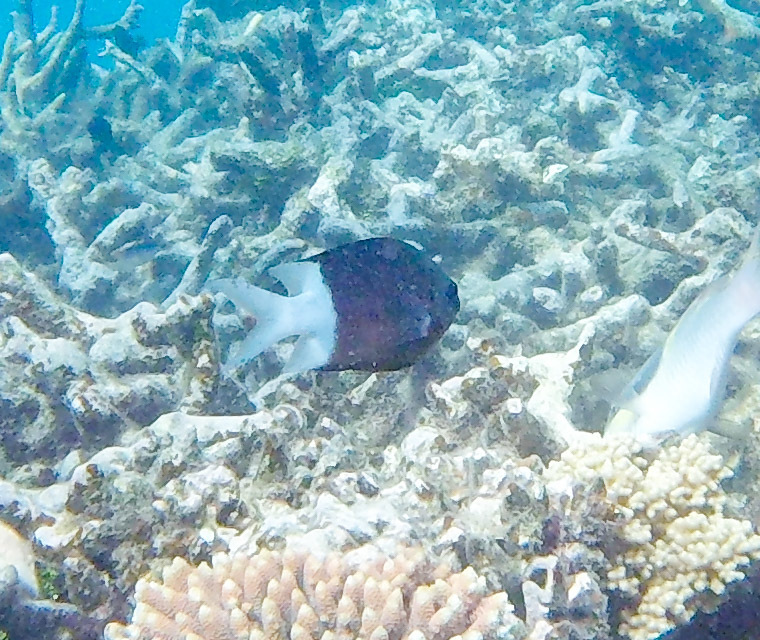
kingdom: Animalia
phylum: Chordata
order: Perciformes
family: Pomacentridae
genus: Acanthochromis
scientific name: Acanthochromis polyacanthus
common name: Spiny chromis
